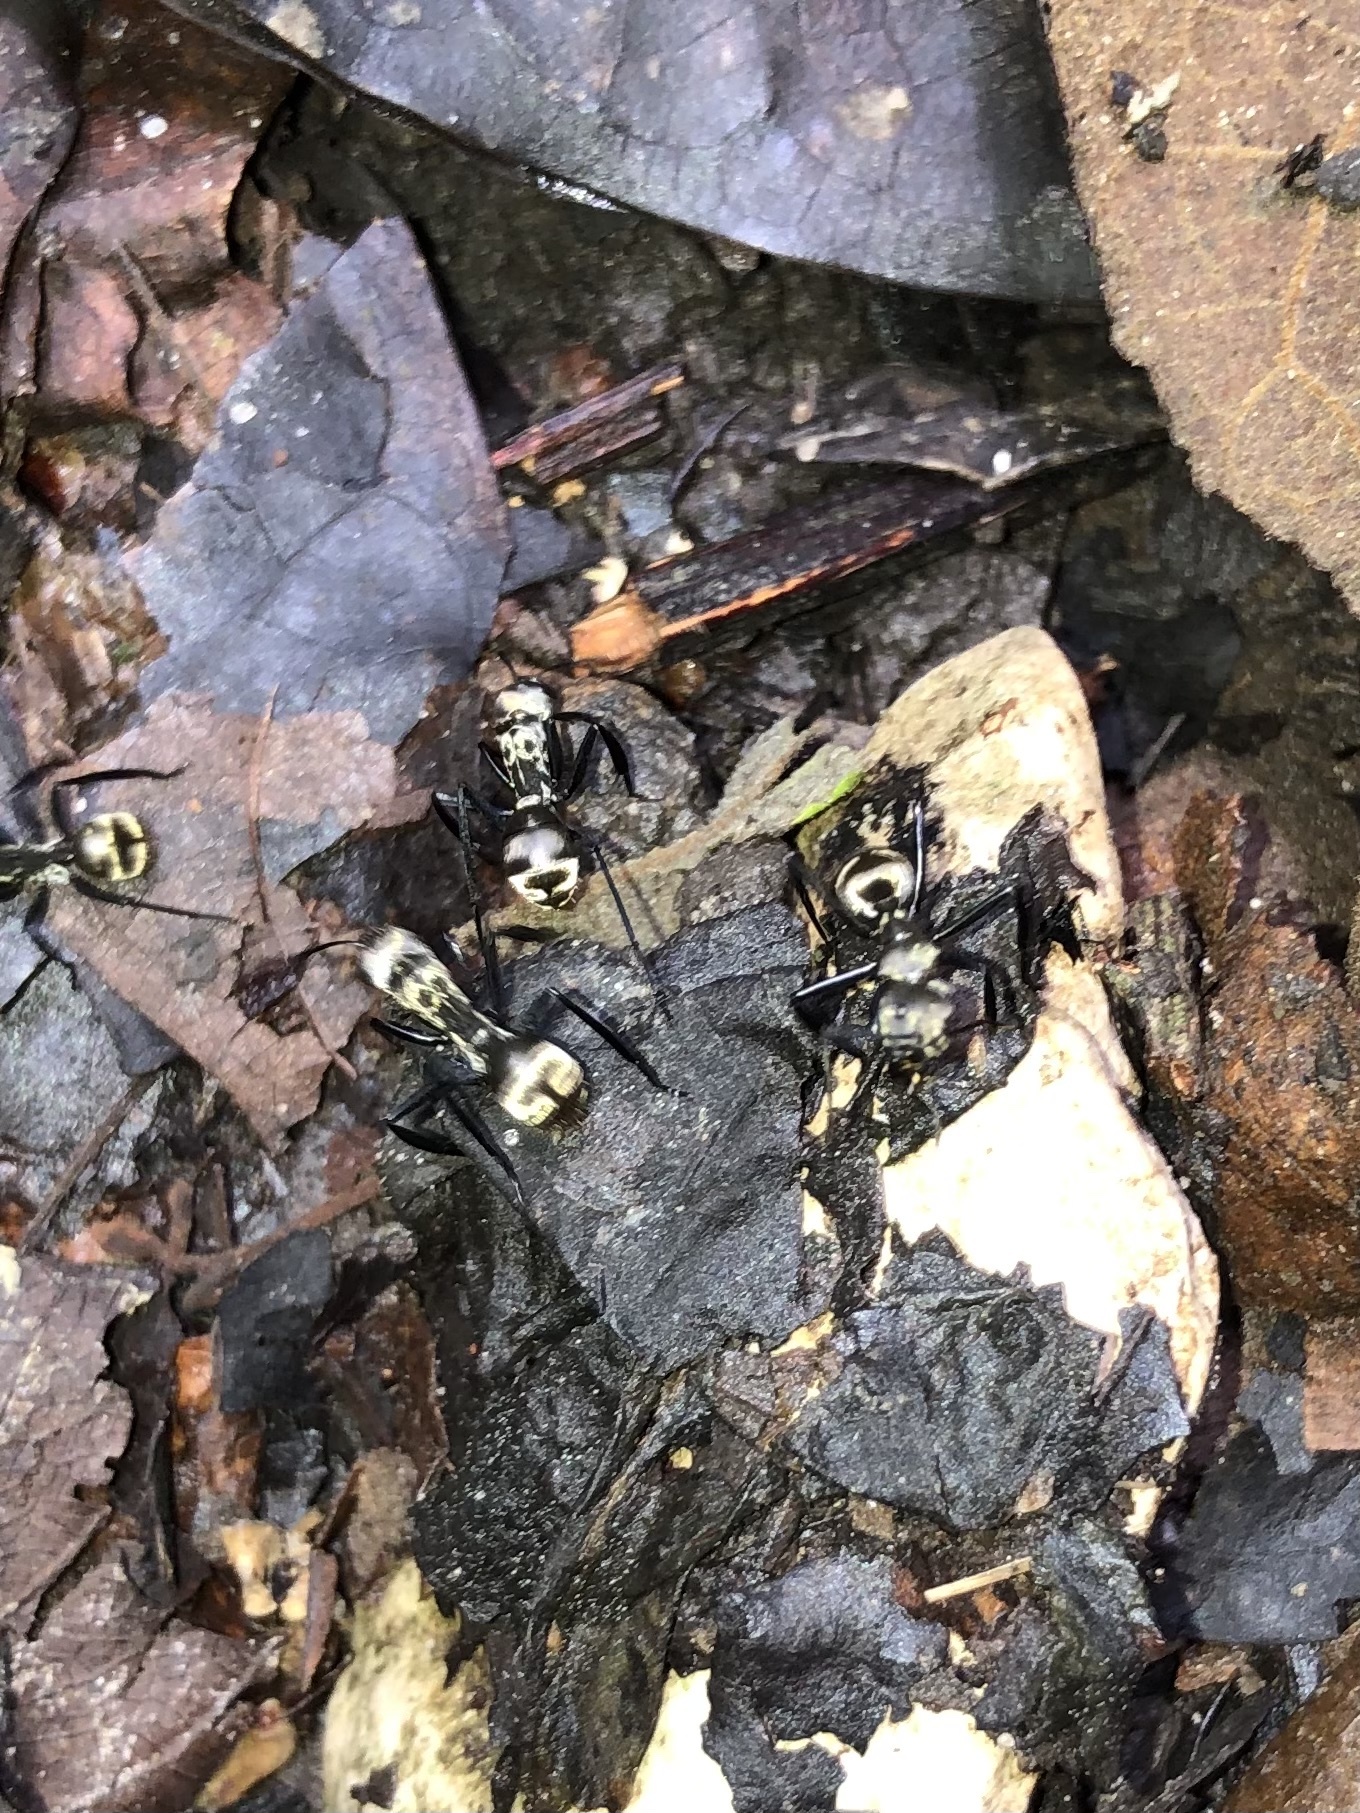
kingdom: Animalia
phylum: Arthropoda
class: Insecta
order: Hymenoptera
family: Formicidae
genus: Camponotus
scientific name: Camponotus sericeiventris
